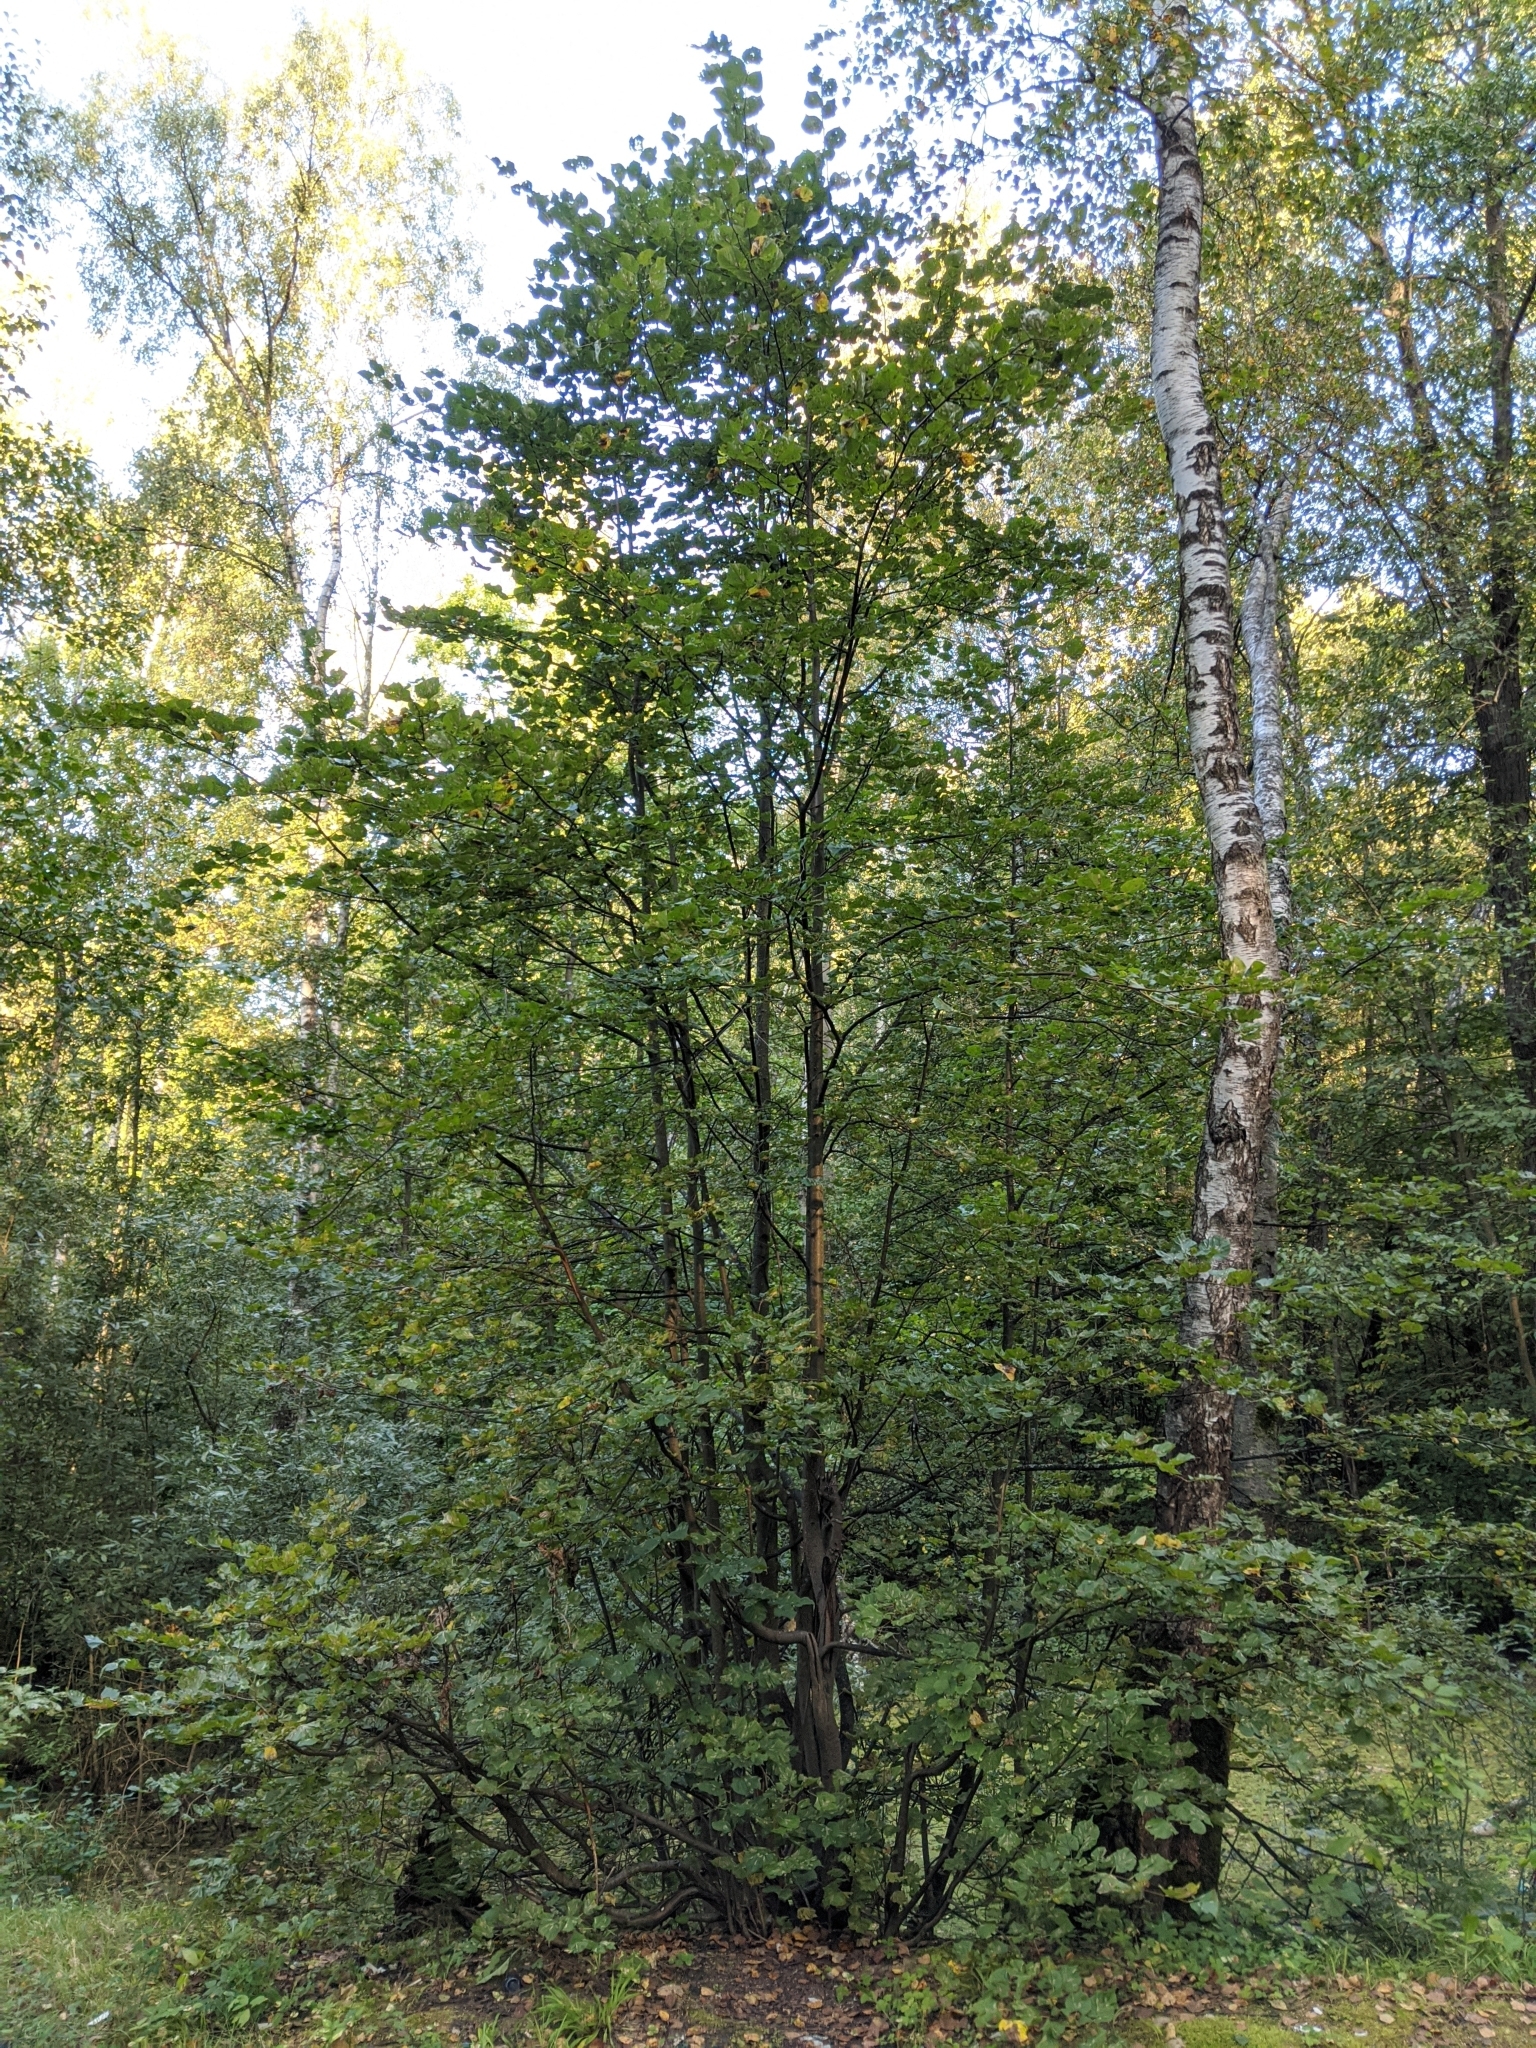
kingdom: Plantae
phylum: Tracheophyta
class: Magnoliopsida
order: Malvales
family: Malvaceae
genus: Tilia
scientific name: Tilia cordata
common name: Small-leaved lime
